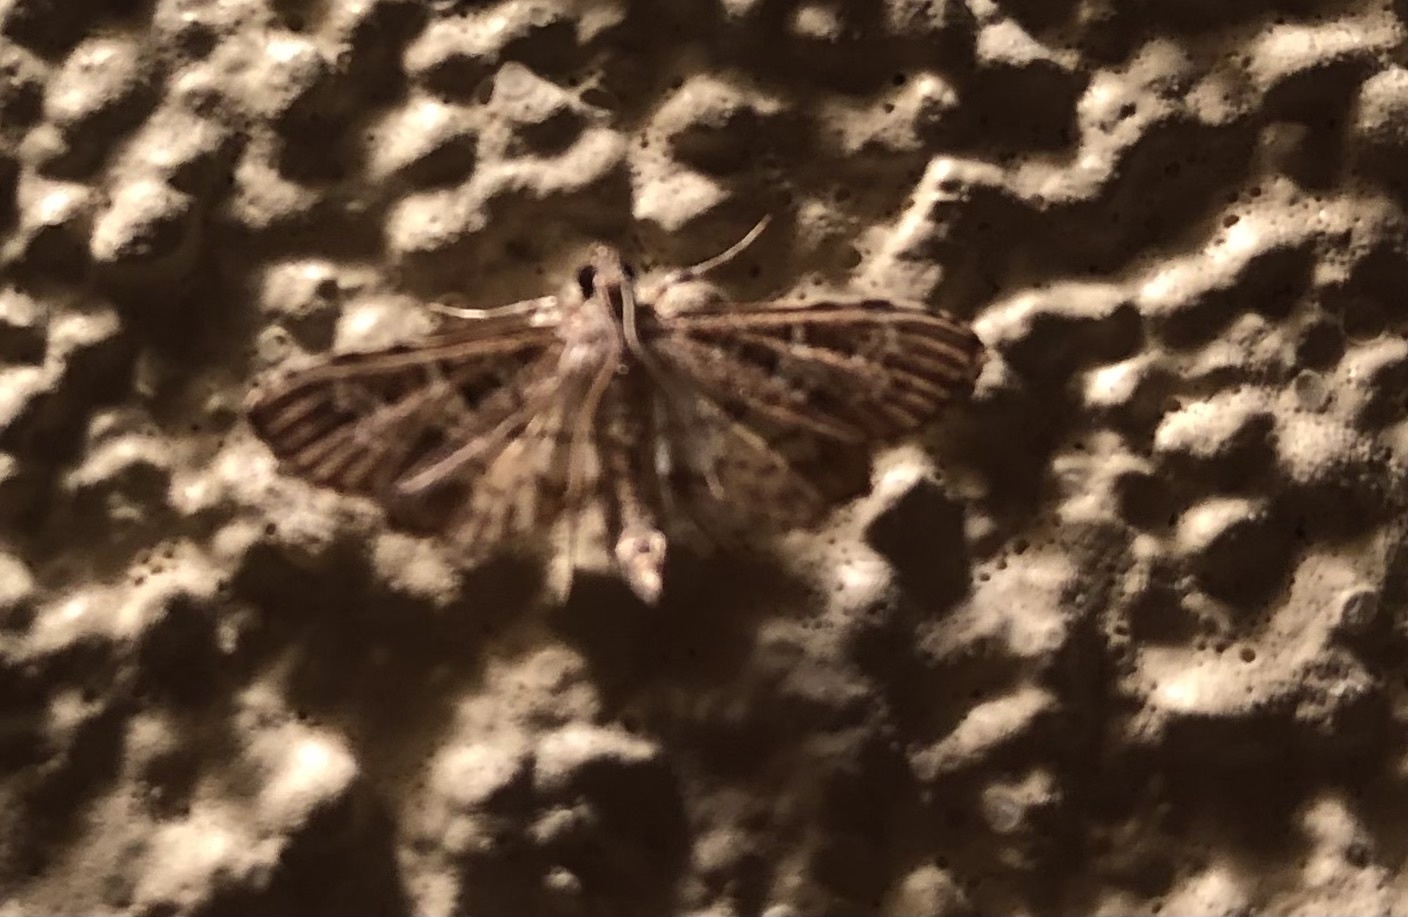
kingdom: Animalia
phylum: Arthropoda
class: Insecta
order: Lepidoptera
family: Crambidae
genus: Samea
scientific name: Samea multiplicalis
